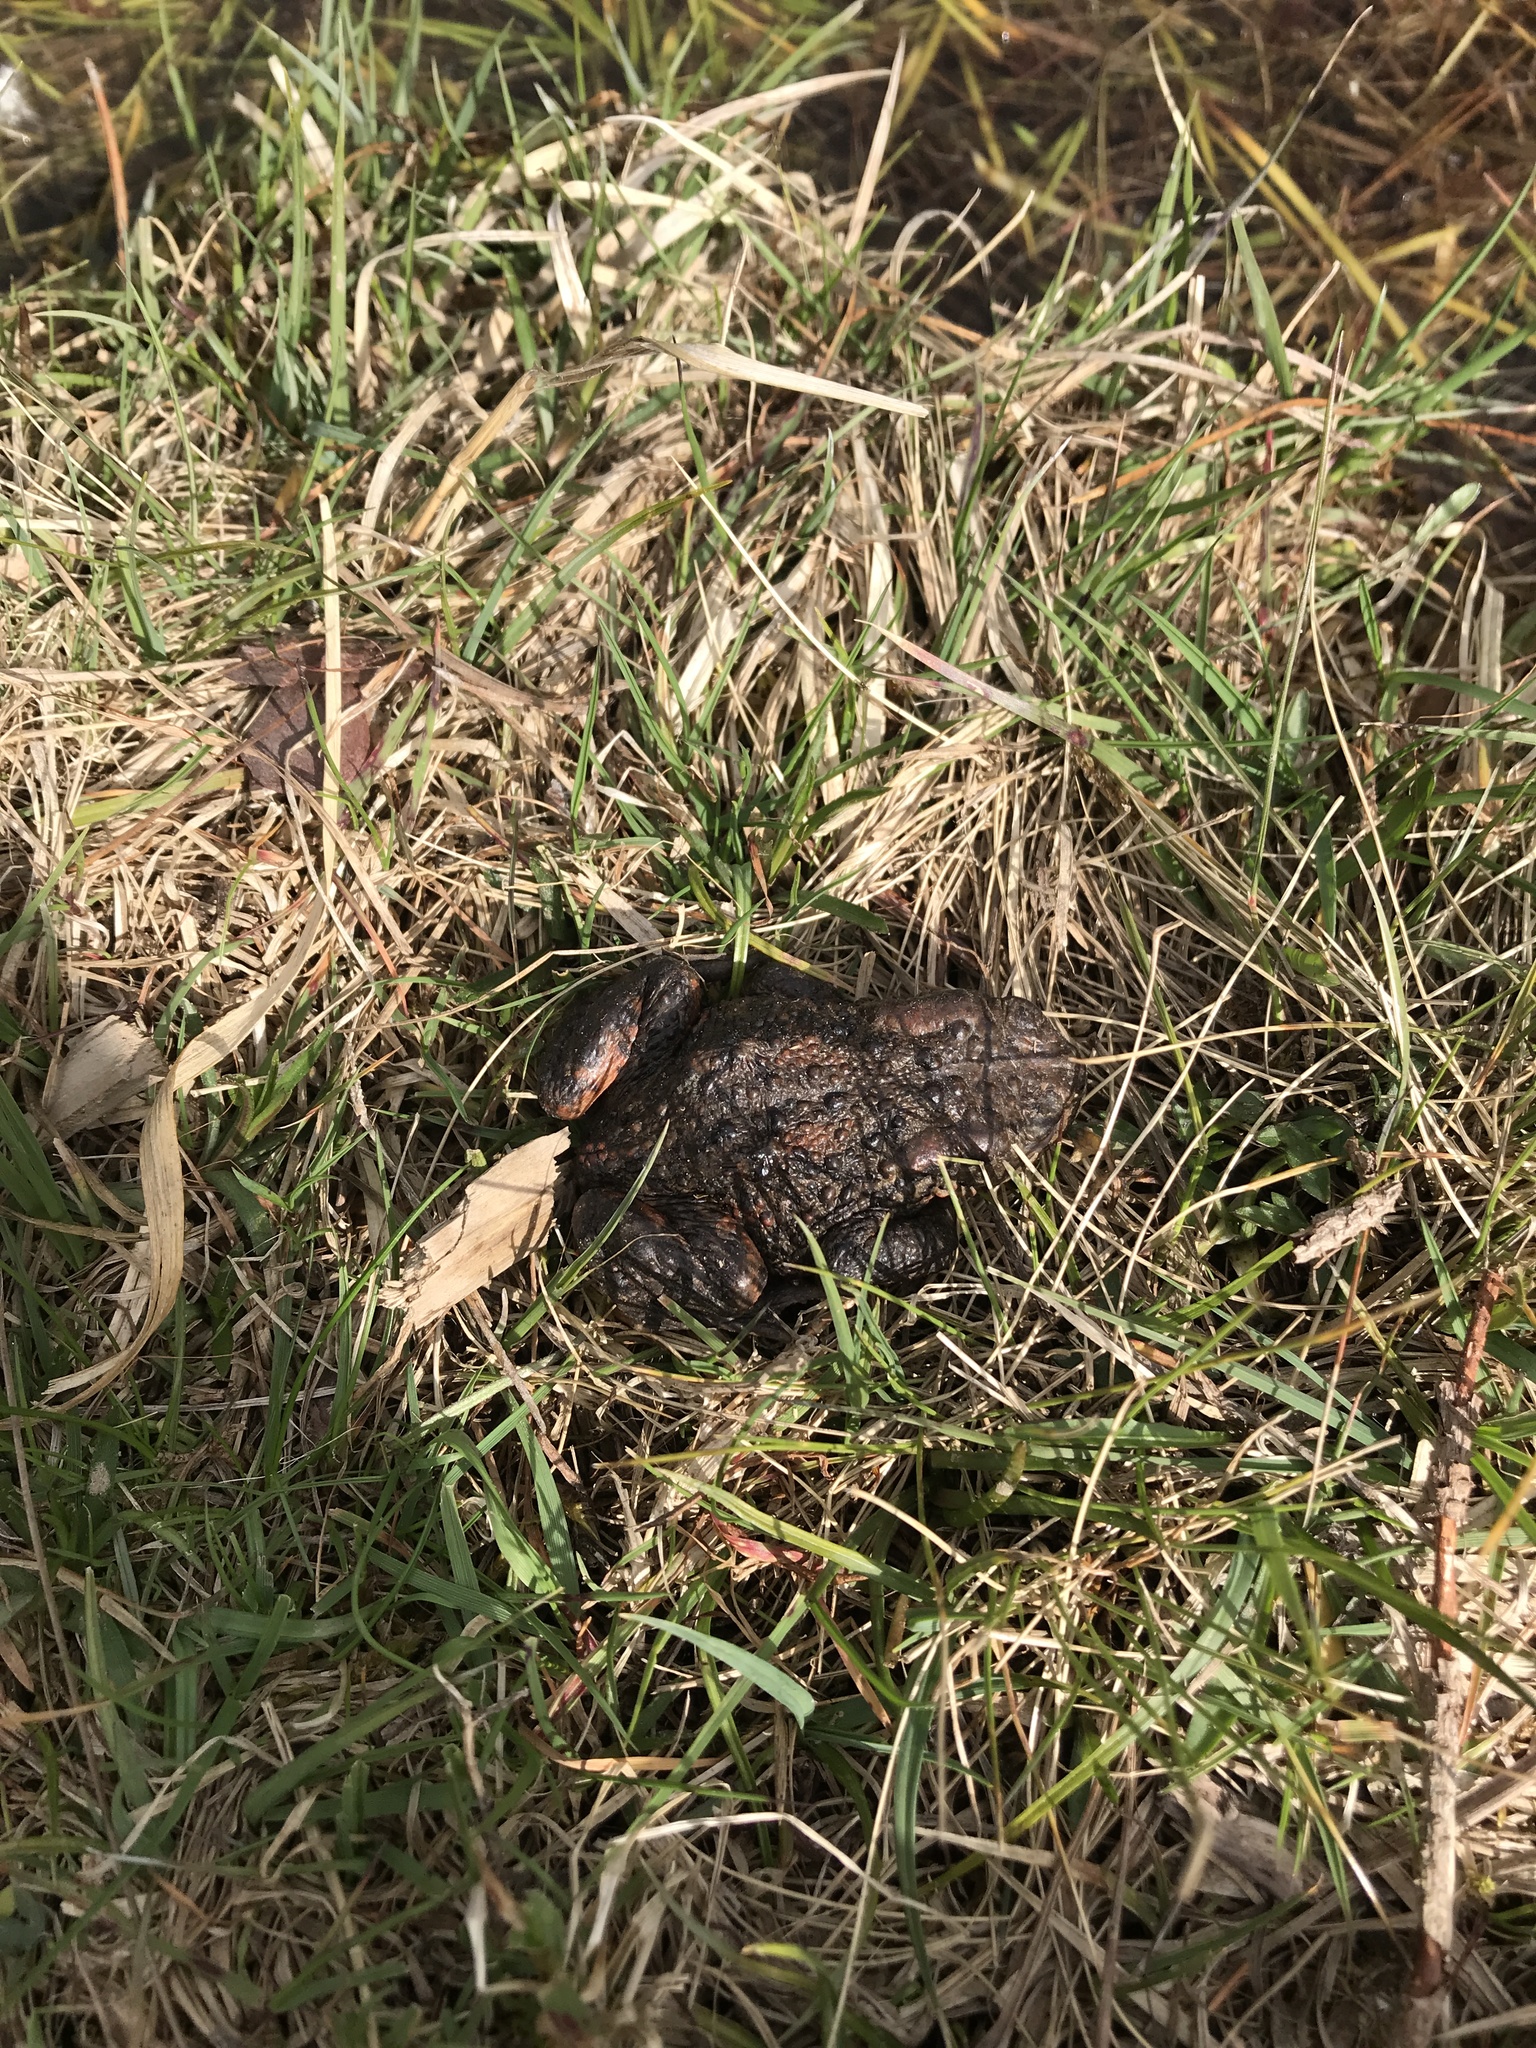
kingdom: Animalia
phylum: Chordata
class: Amphibia
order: Anura
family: Bufonidae
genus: Bufo
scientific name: Bufo bufo
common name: Common toad
